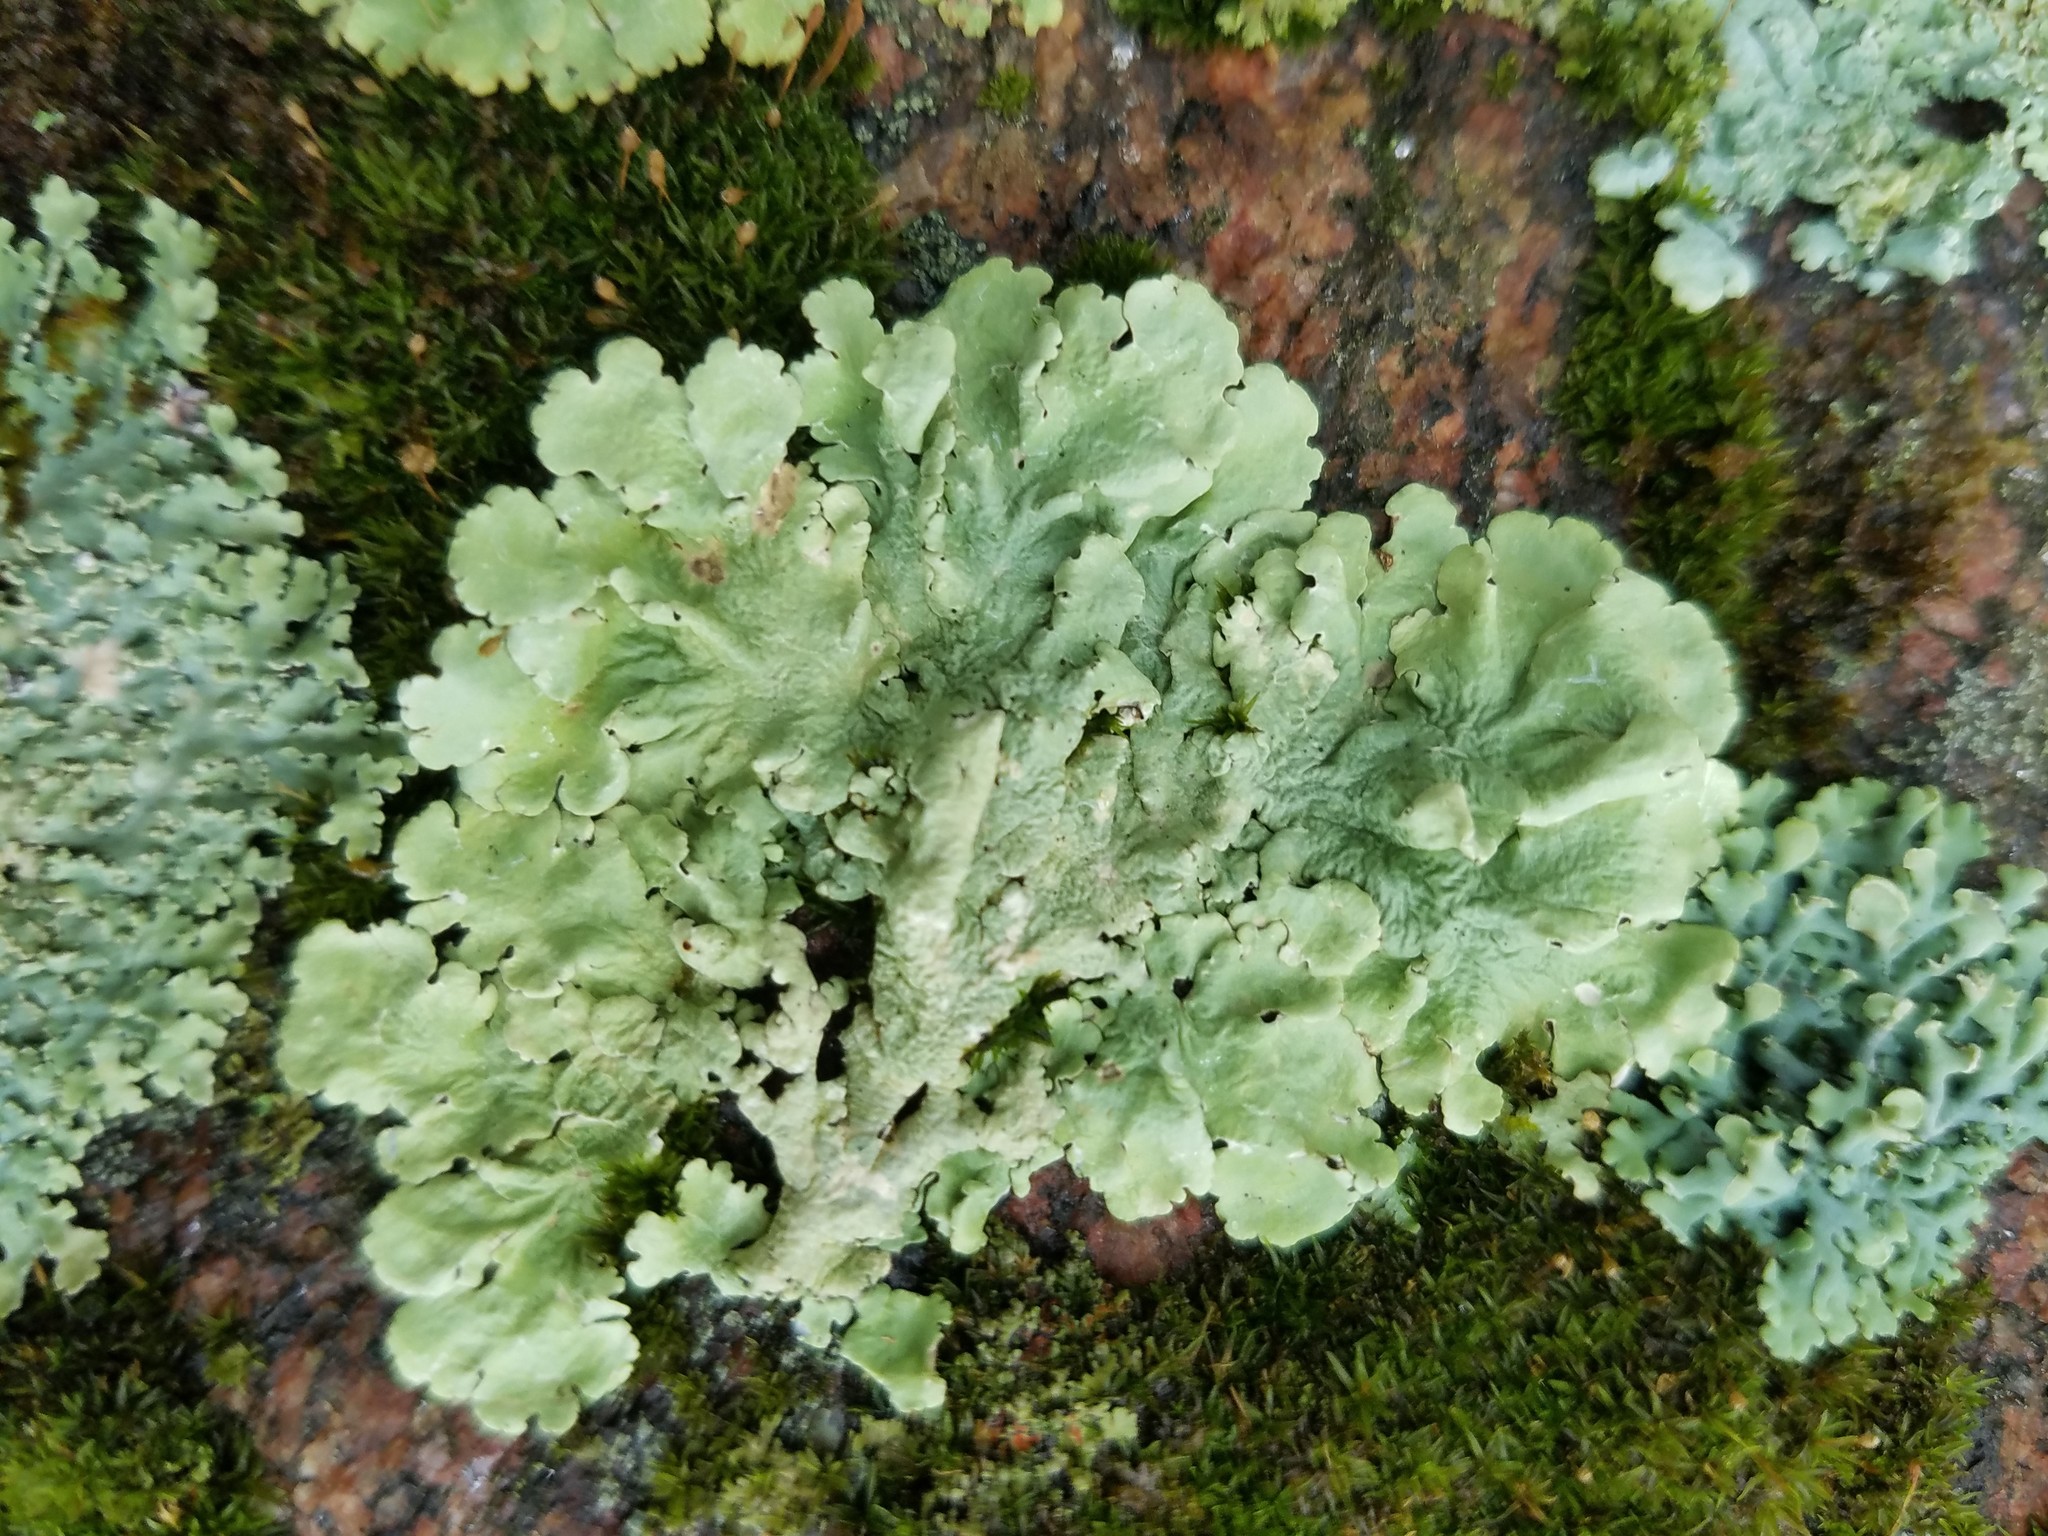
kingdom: Fungi
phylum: Ascomycota
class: Lecanoromycetes
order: Lecanorales
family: Parmeliaceae
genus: Flavoparmelia
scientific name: Flavoparmelia caperata
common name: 40-mile per hour lichen
